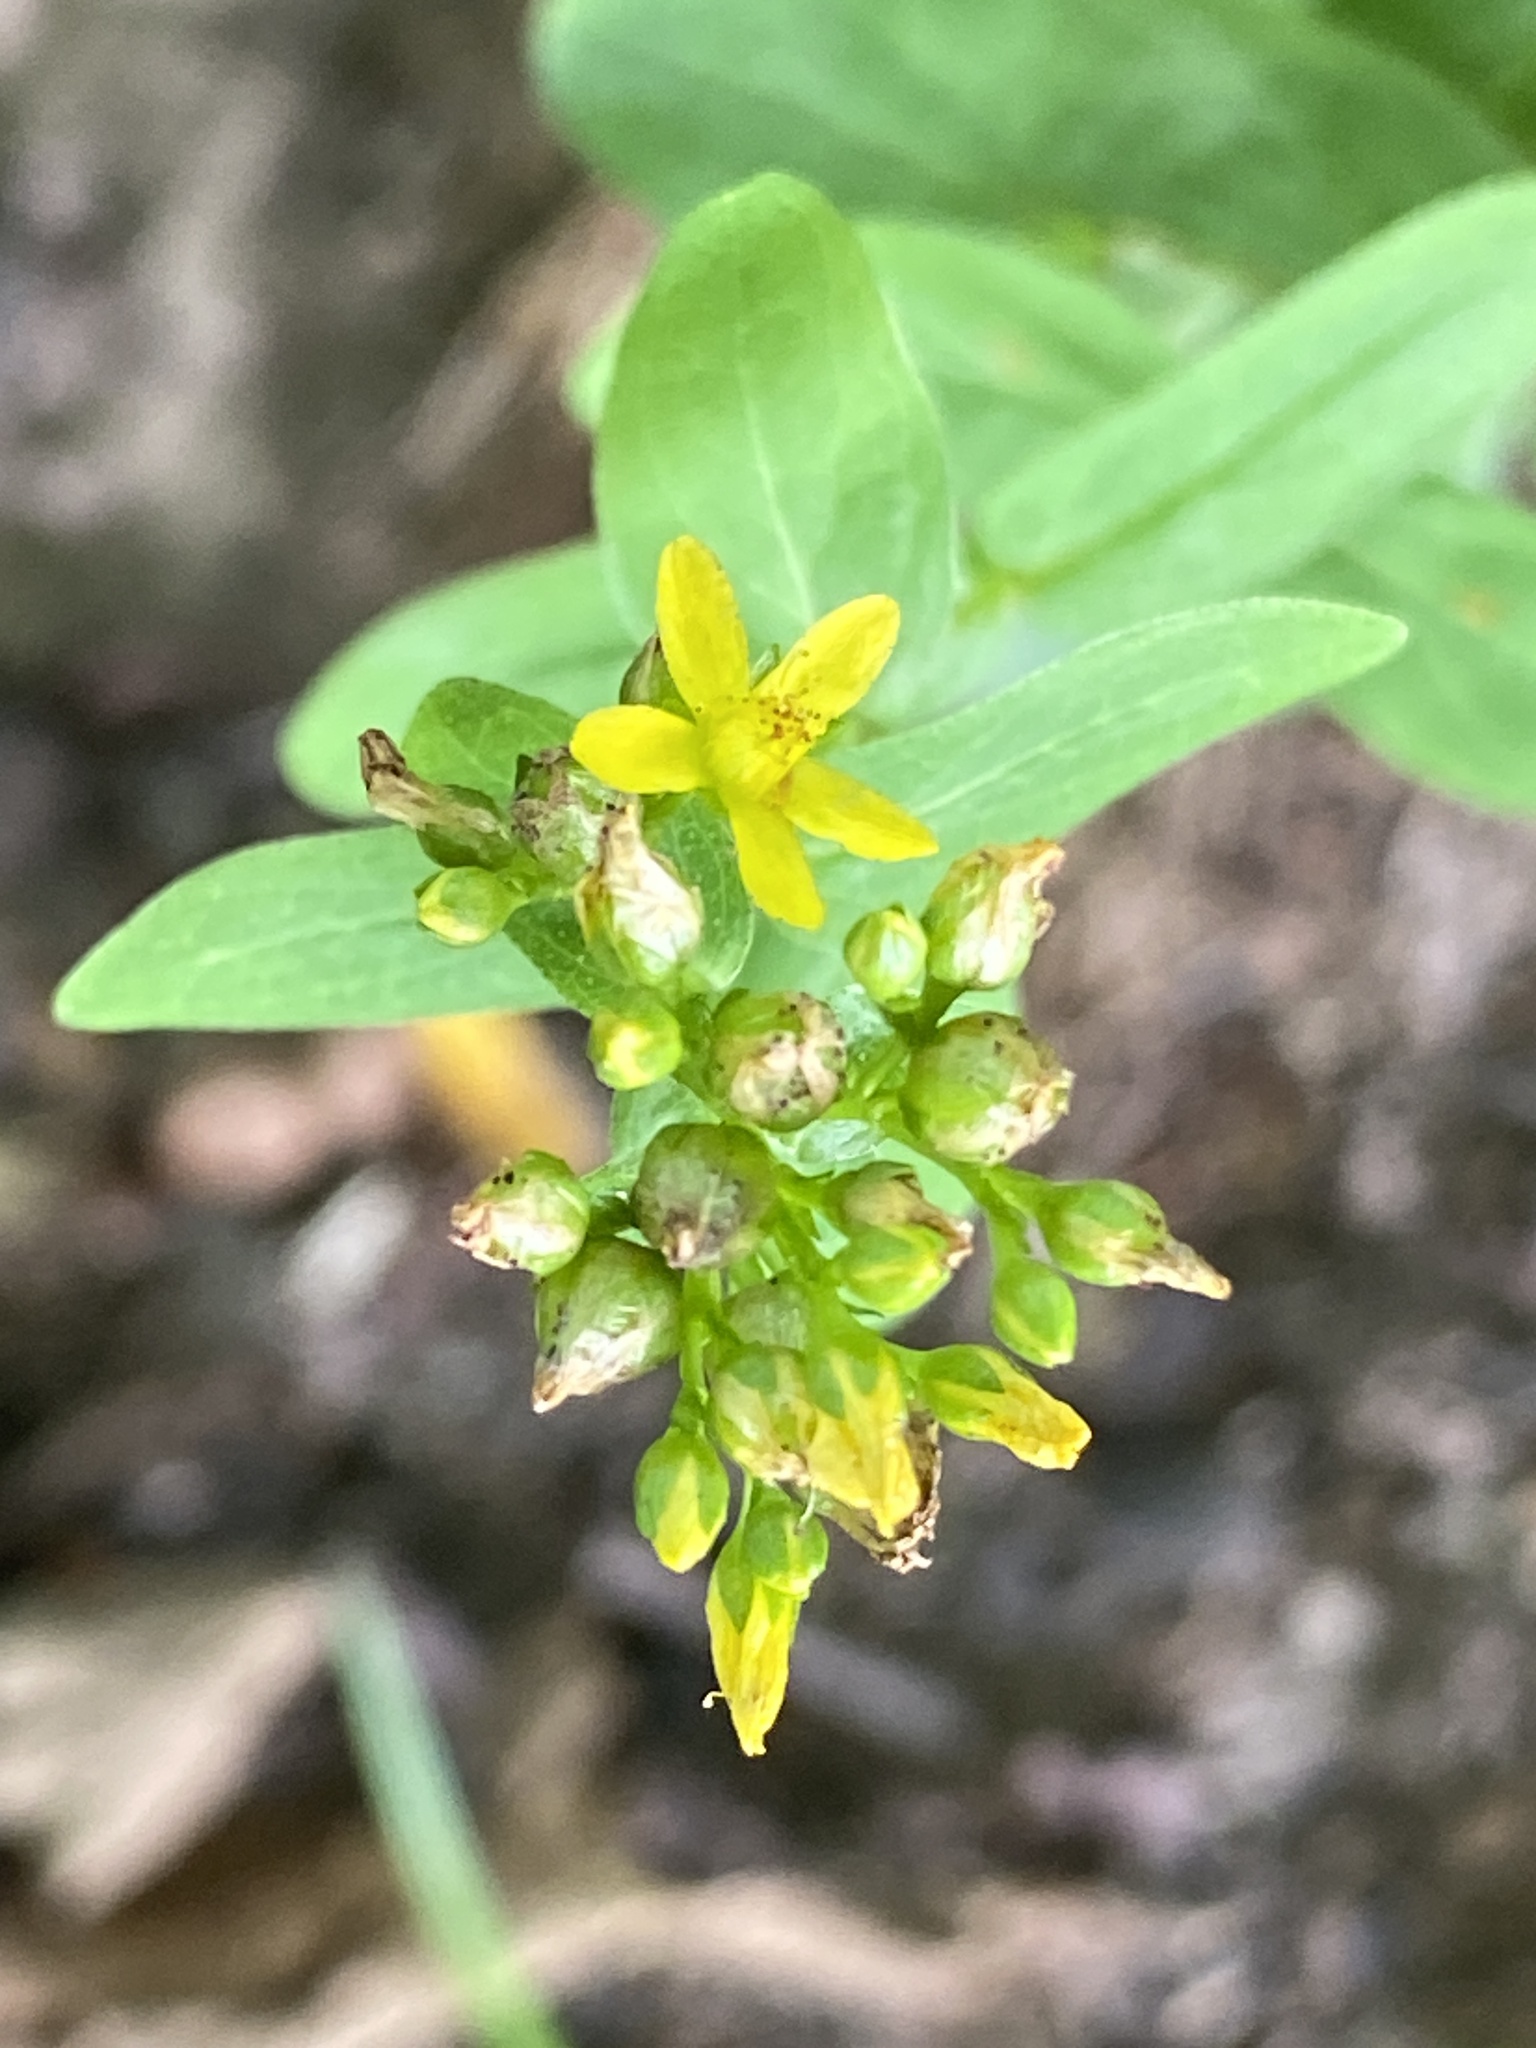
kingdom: Plantae
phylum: Tracheophyta
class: Magnoliopsida
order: Malpighiales
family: Hypericaceae
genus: Hypericum
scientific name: Hypericum punctatum
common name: Spotted st. john's-wort
